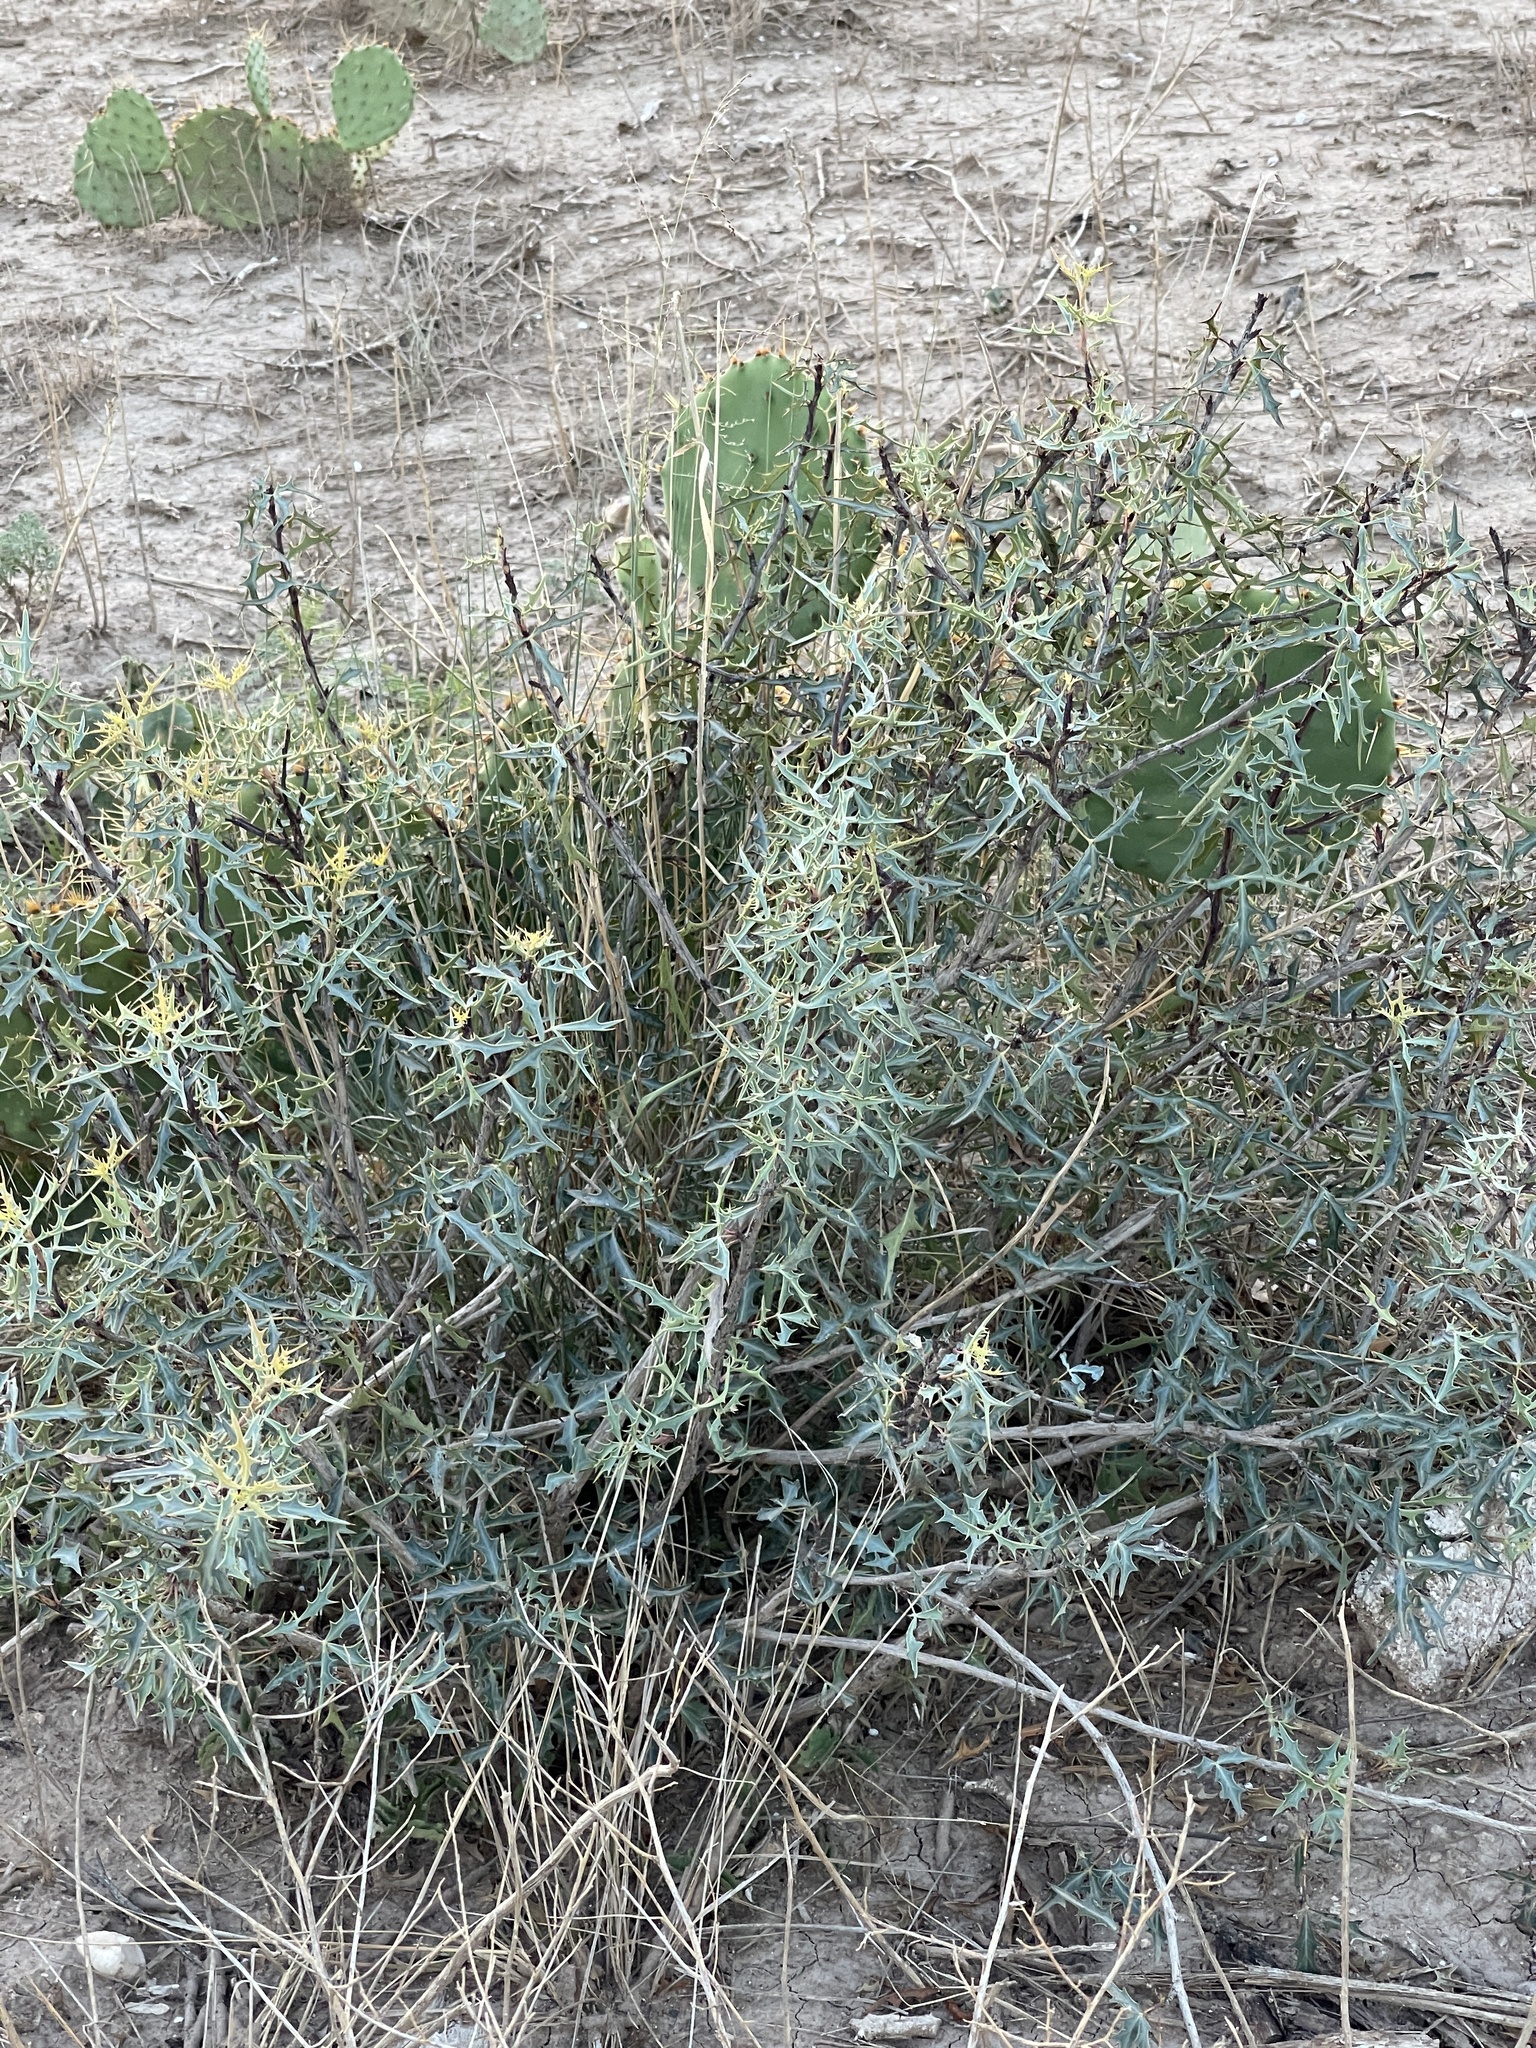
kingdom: Plantae
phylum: Tracheophyta
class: Magnoliopsida
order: Ranunculales
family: Berberidaceae
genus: Alloberberis
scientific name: Alloberberis trifoliolata
